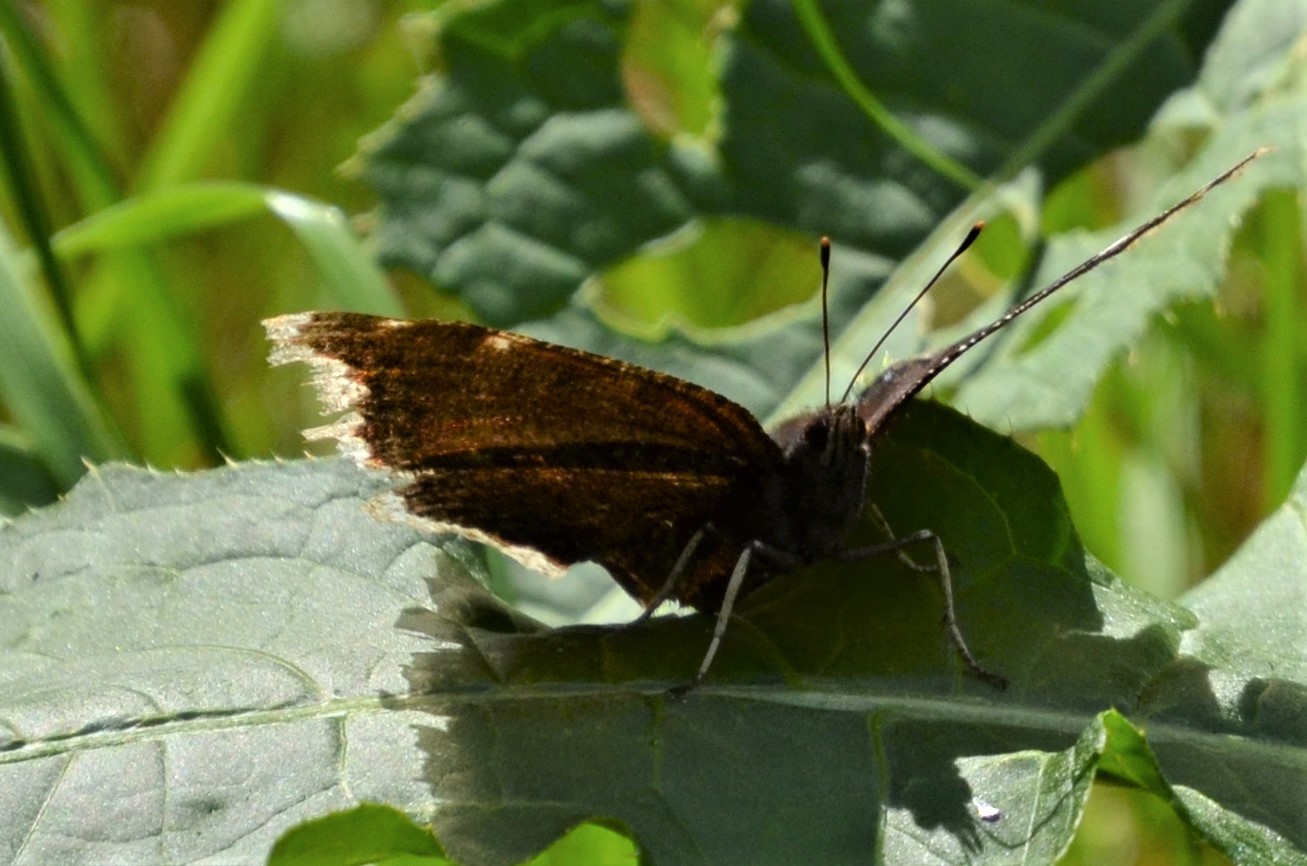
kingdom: Animalia
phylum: Arthropoda
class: Insecta
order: Lepidoptera
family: Nymphalidae
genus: Nymphalis
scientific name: Nymphalis antiopa
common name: Camberwell beauty
